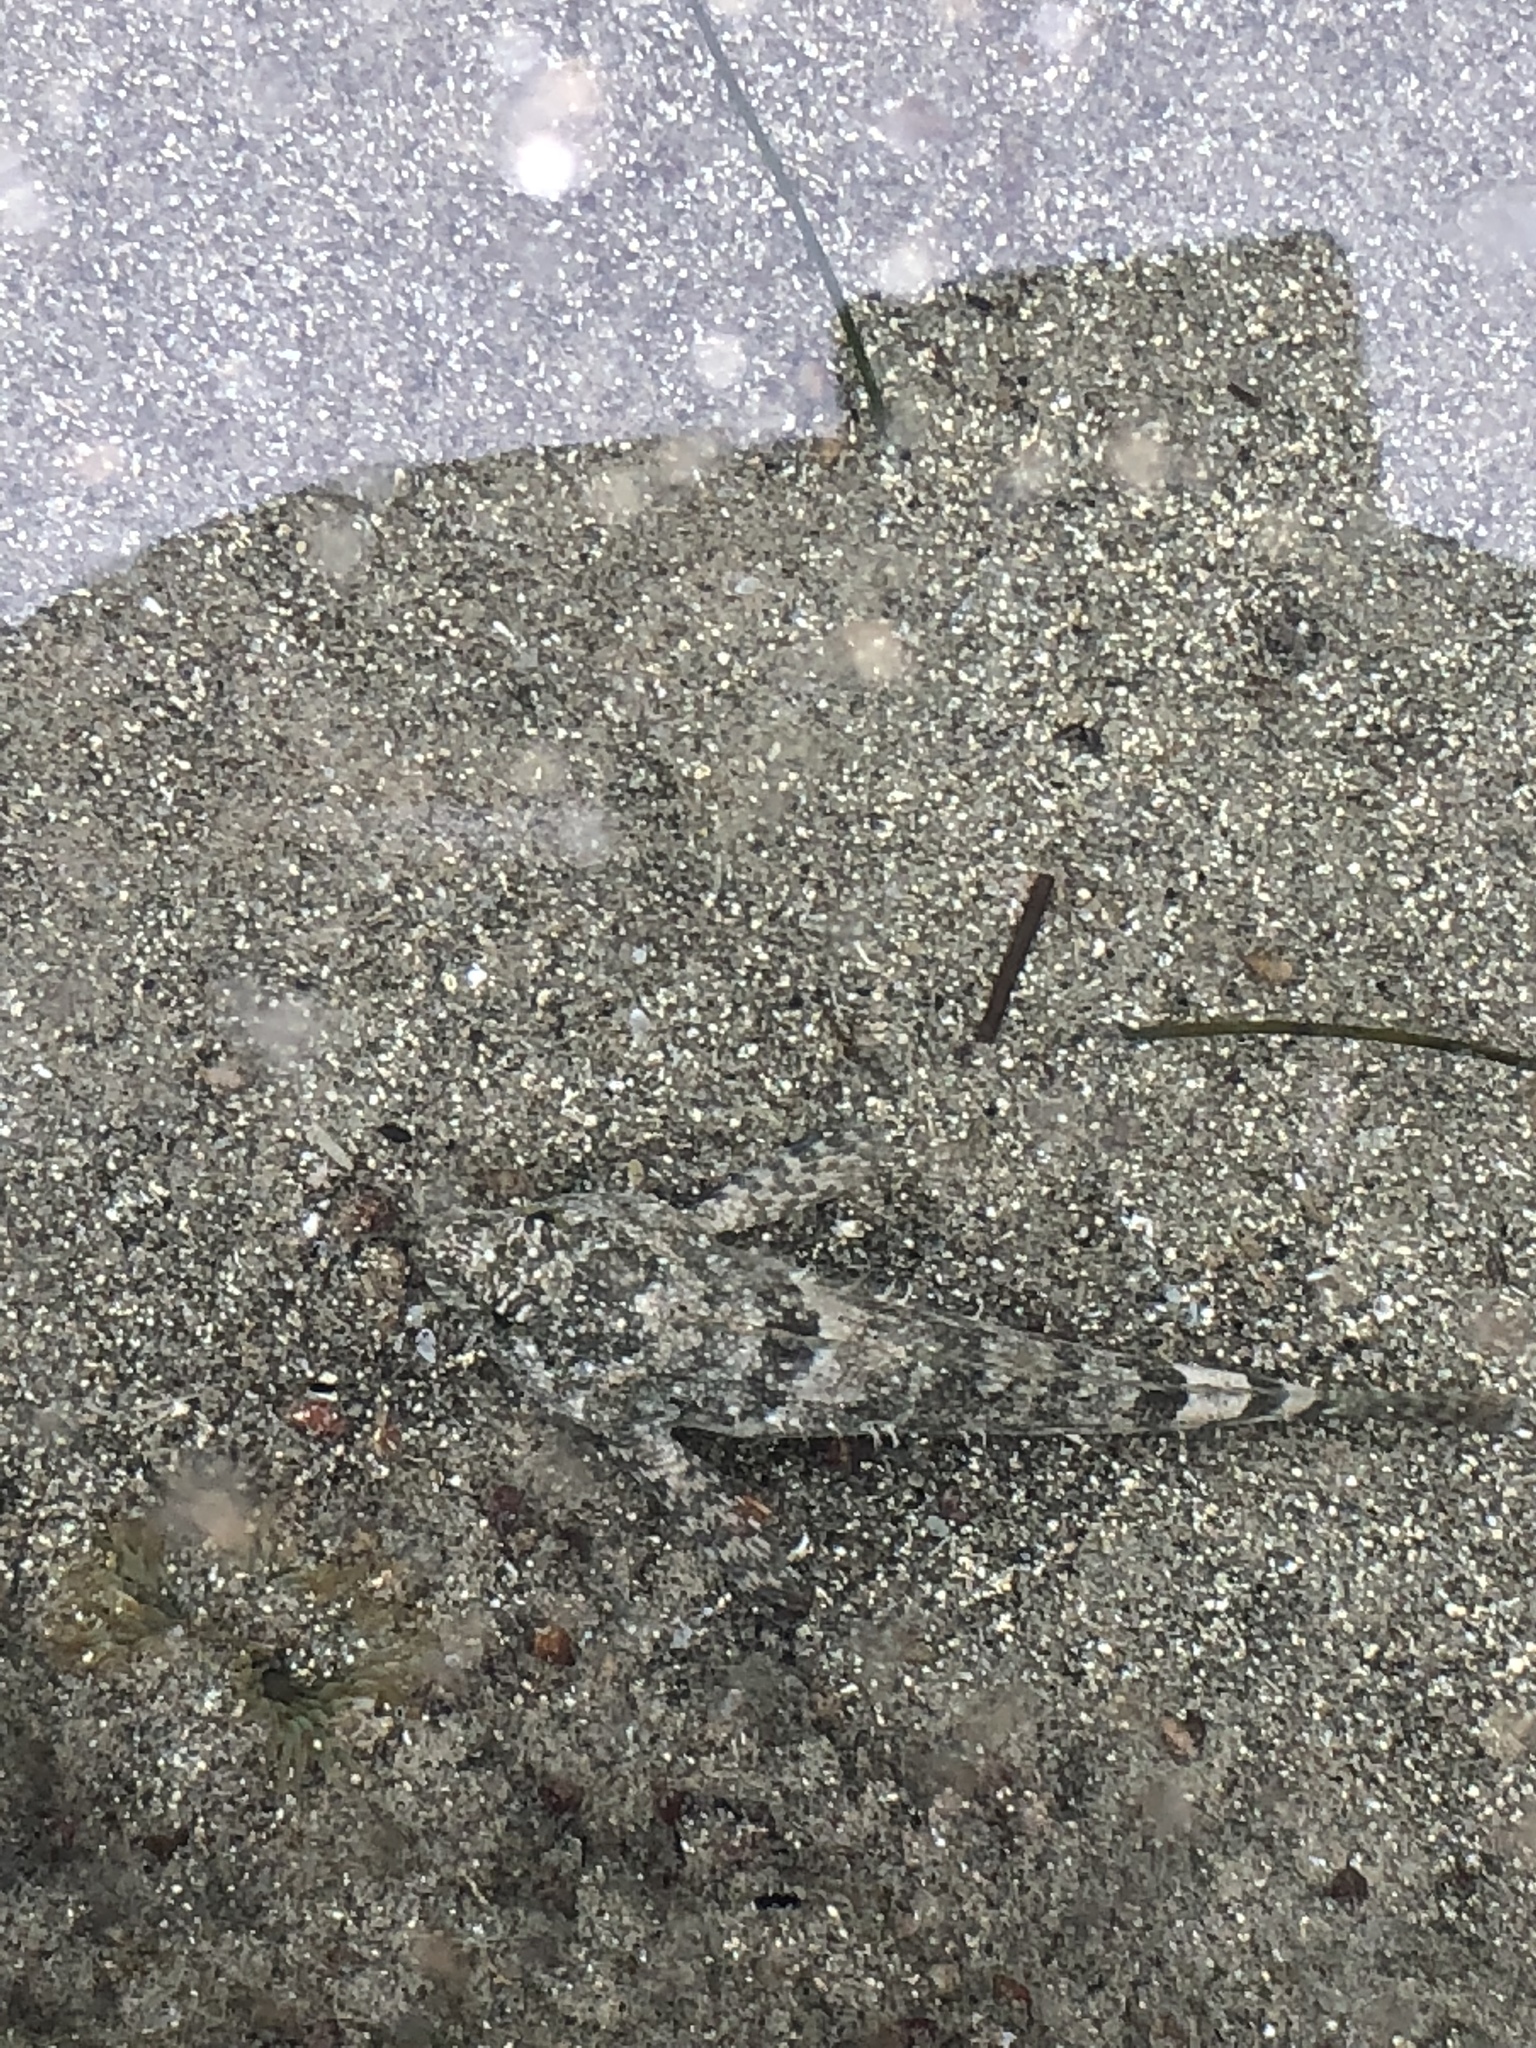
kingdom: Animalia
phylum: Chordata
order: Scorpaeniformes
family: Cottidae
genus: Clinocottus
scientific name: Clinocottus analis
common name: Woolly sculpin
